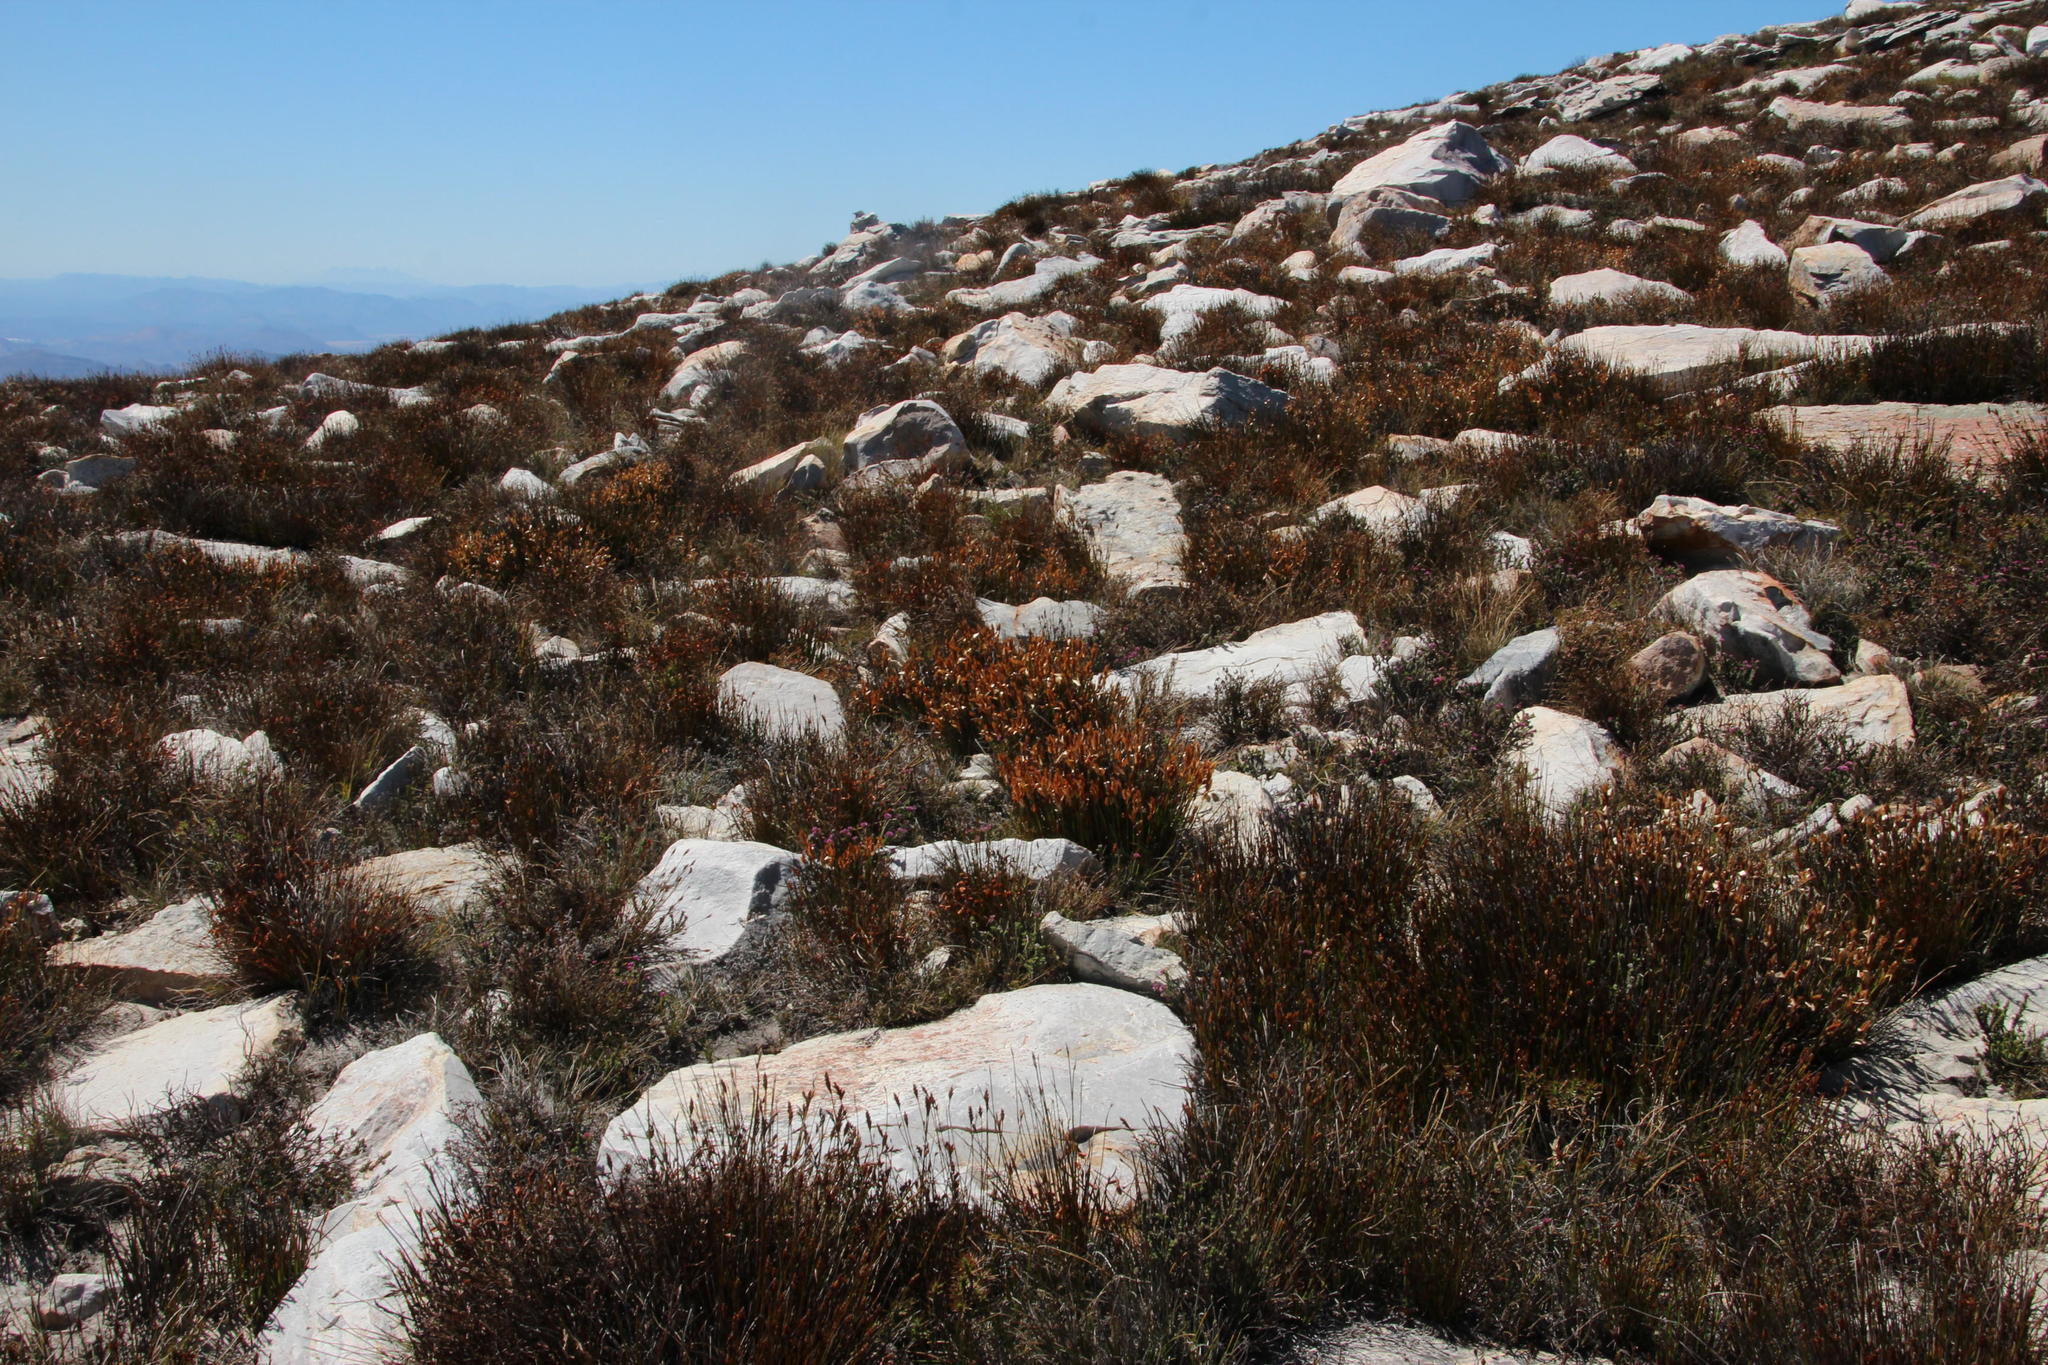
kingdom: Plantae
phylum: Tracheophyta
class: Liliopsida
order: Poales
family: Restionaceae
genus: Elegia
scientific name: Elegia esterhuyseniae
